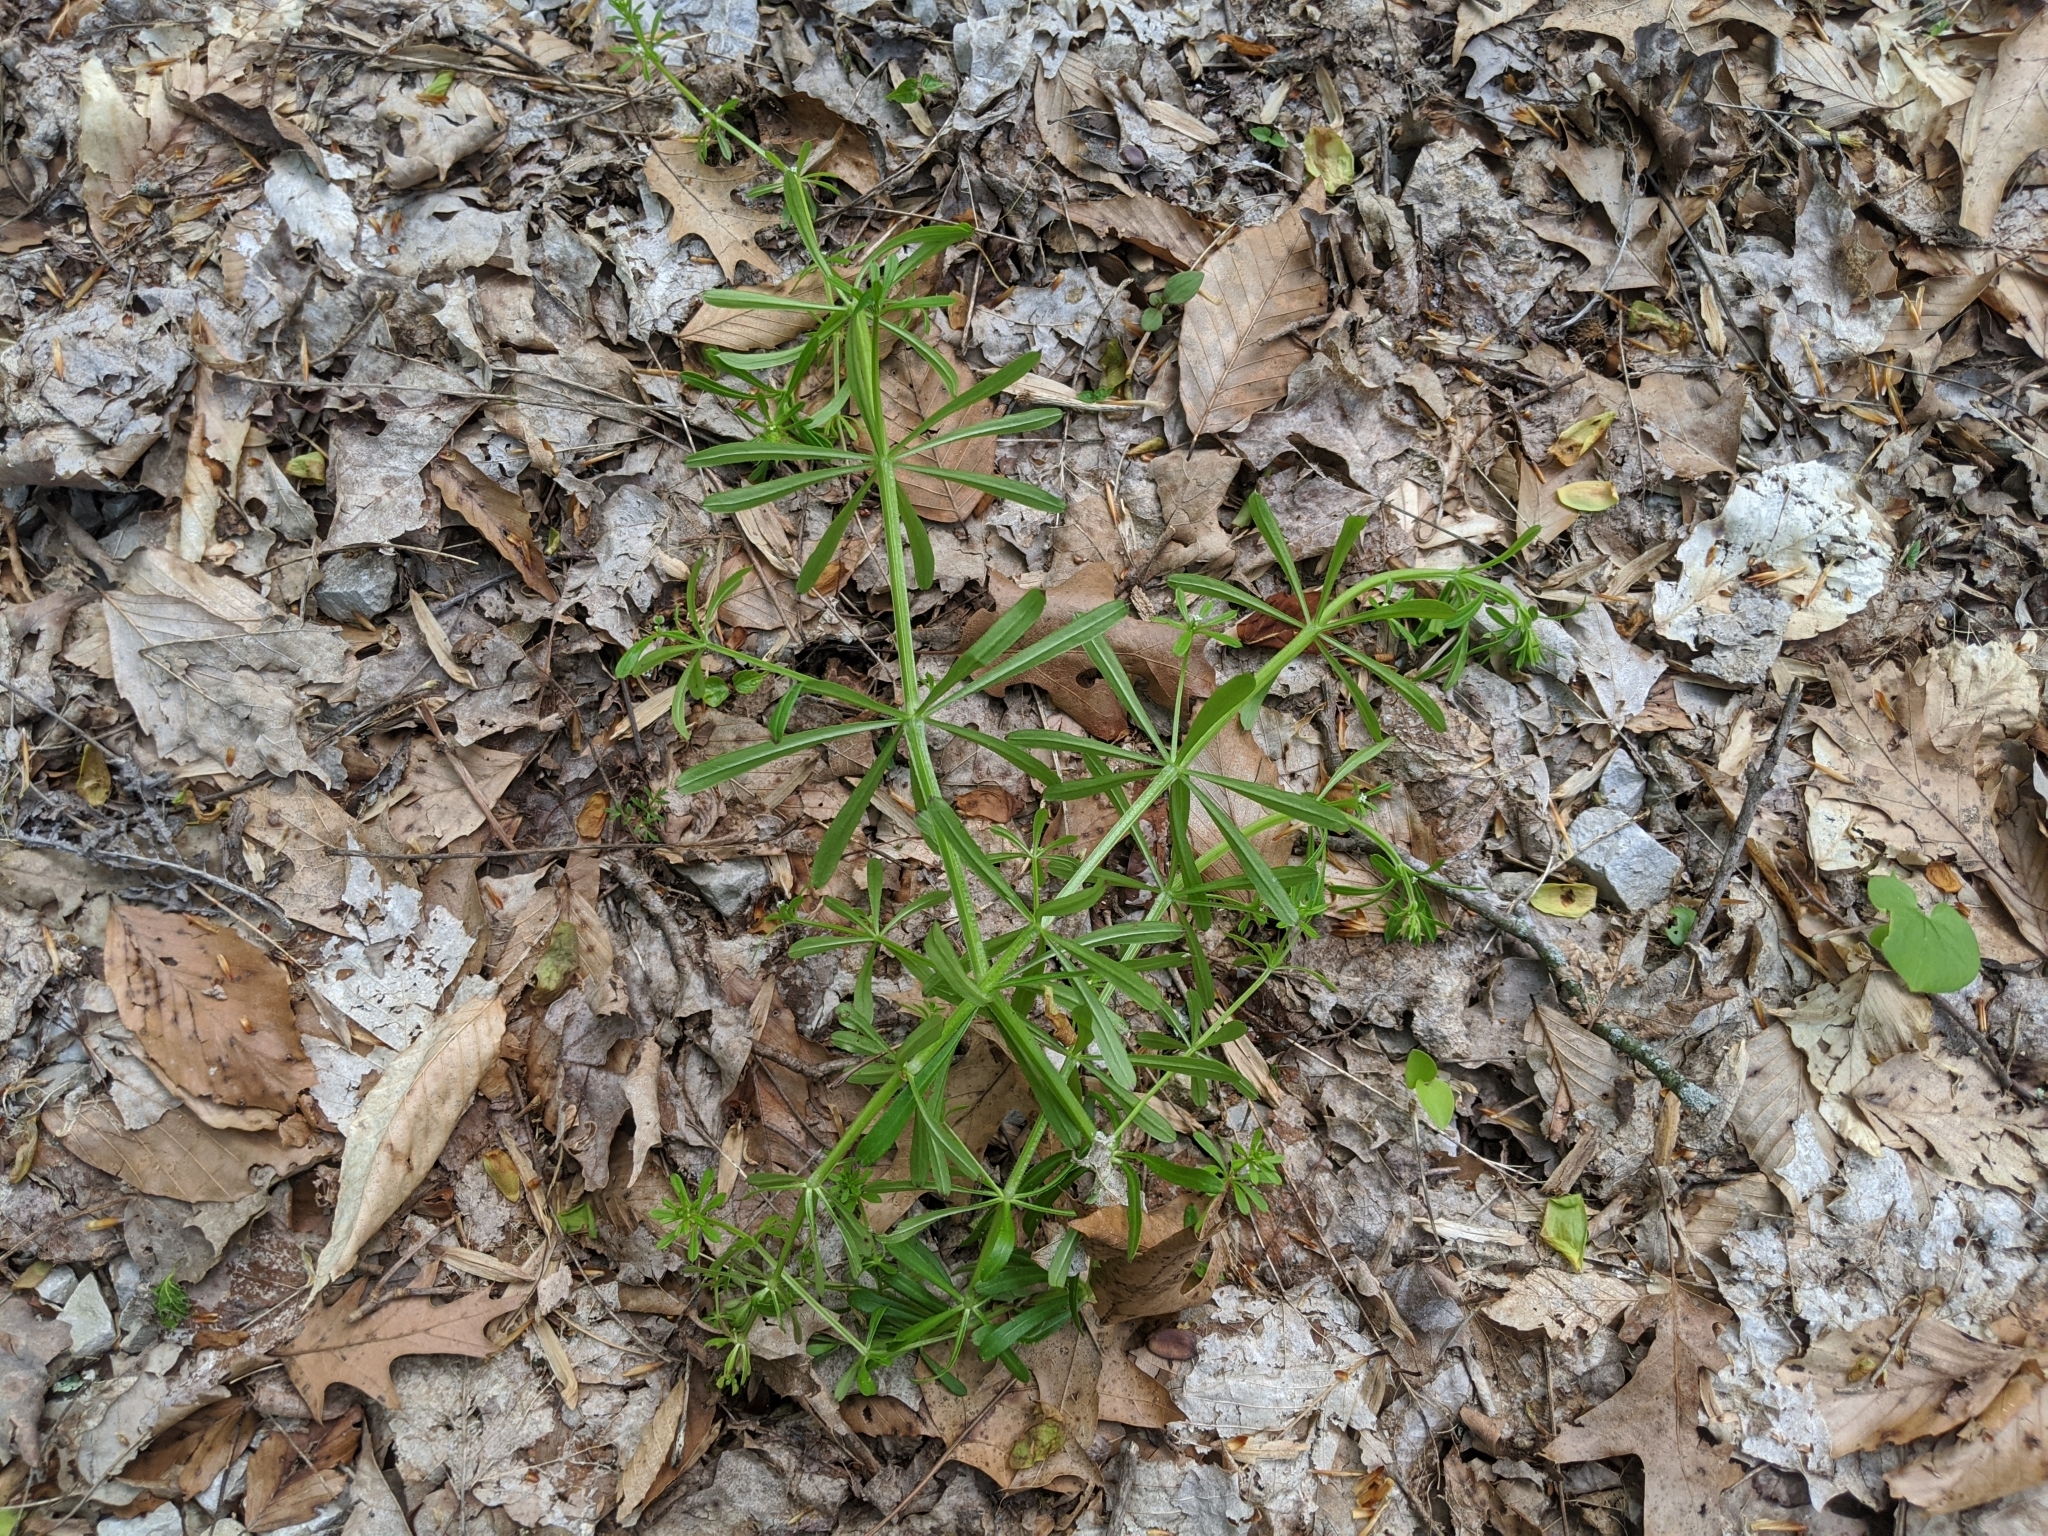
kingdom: Plantae
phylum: Tracheophyta
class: Magnoliopsida
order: Gentianales
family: Rubiaceae
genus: Galium
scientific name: Galium aparine
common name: Cleavers
